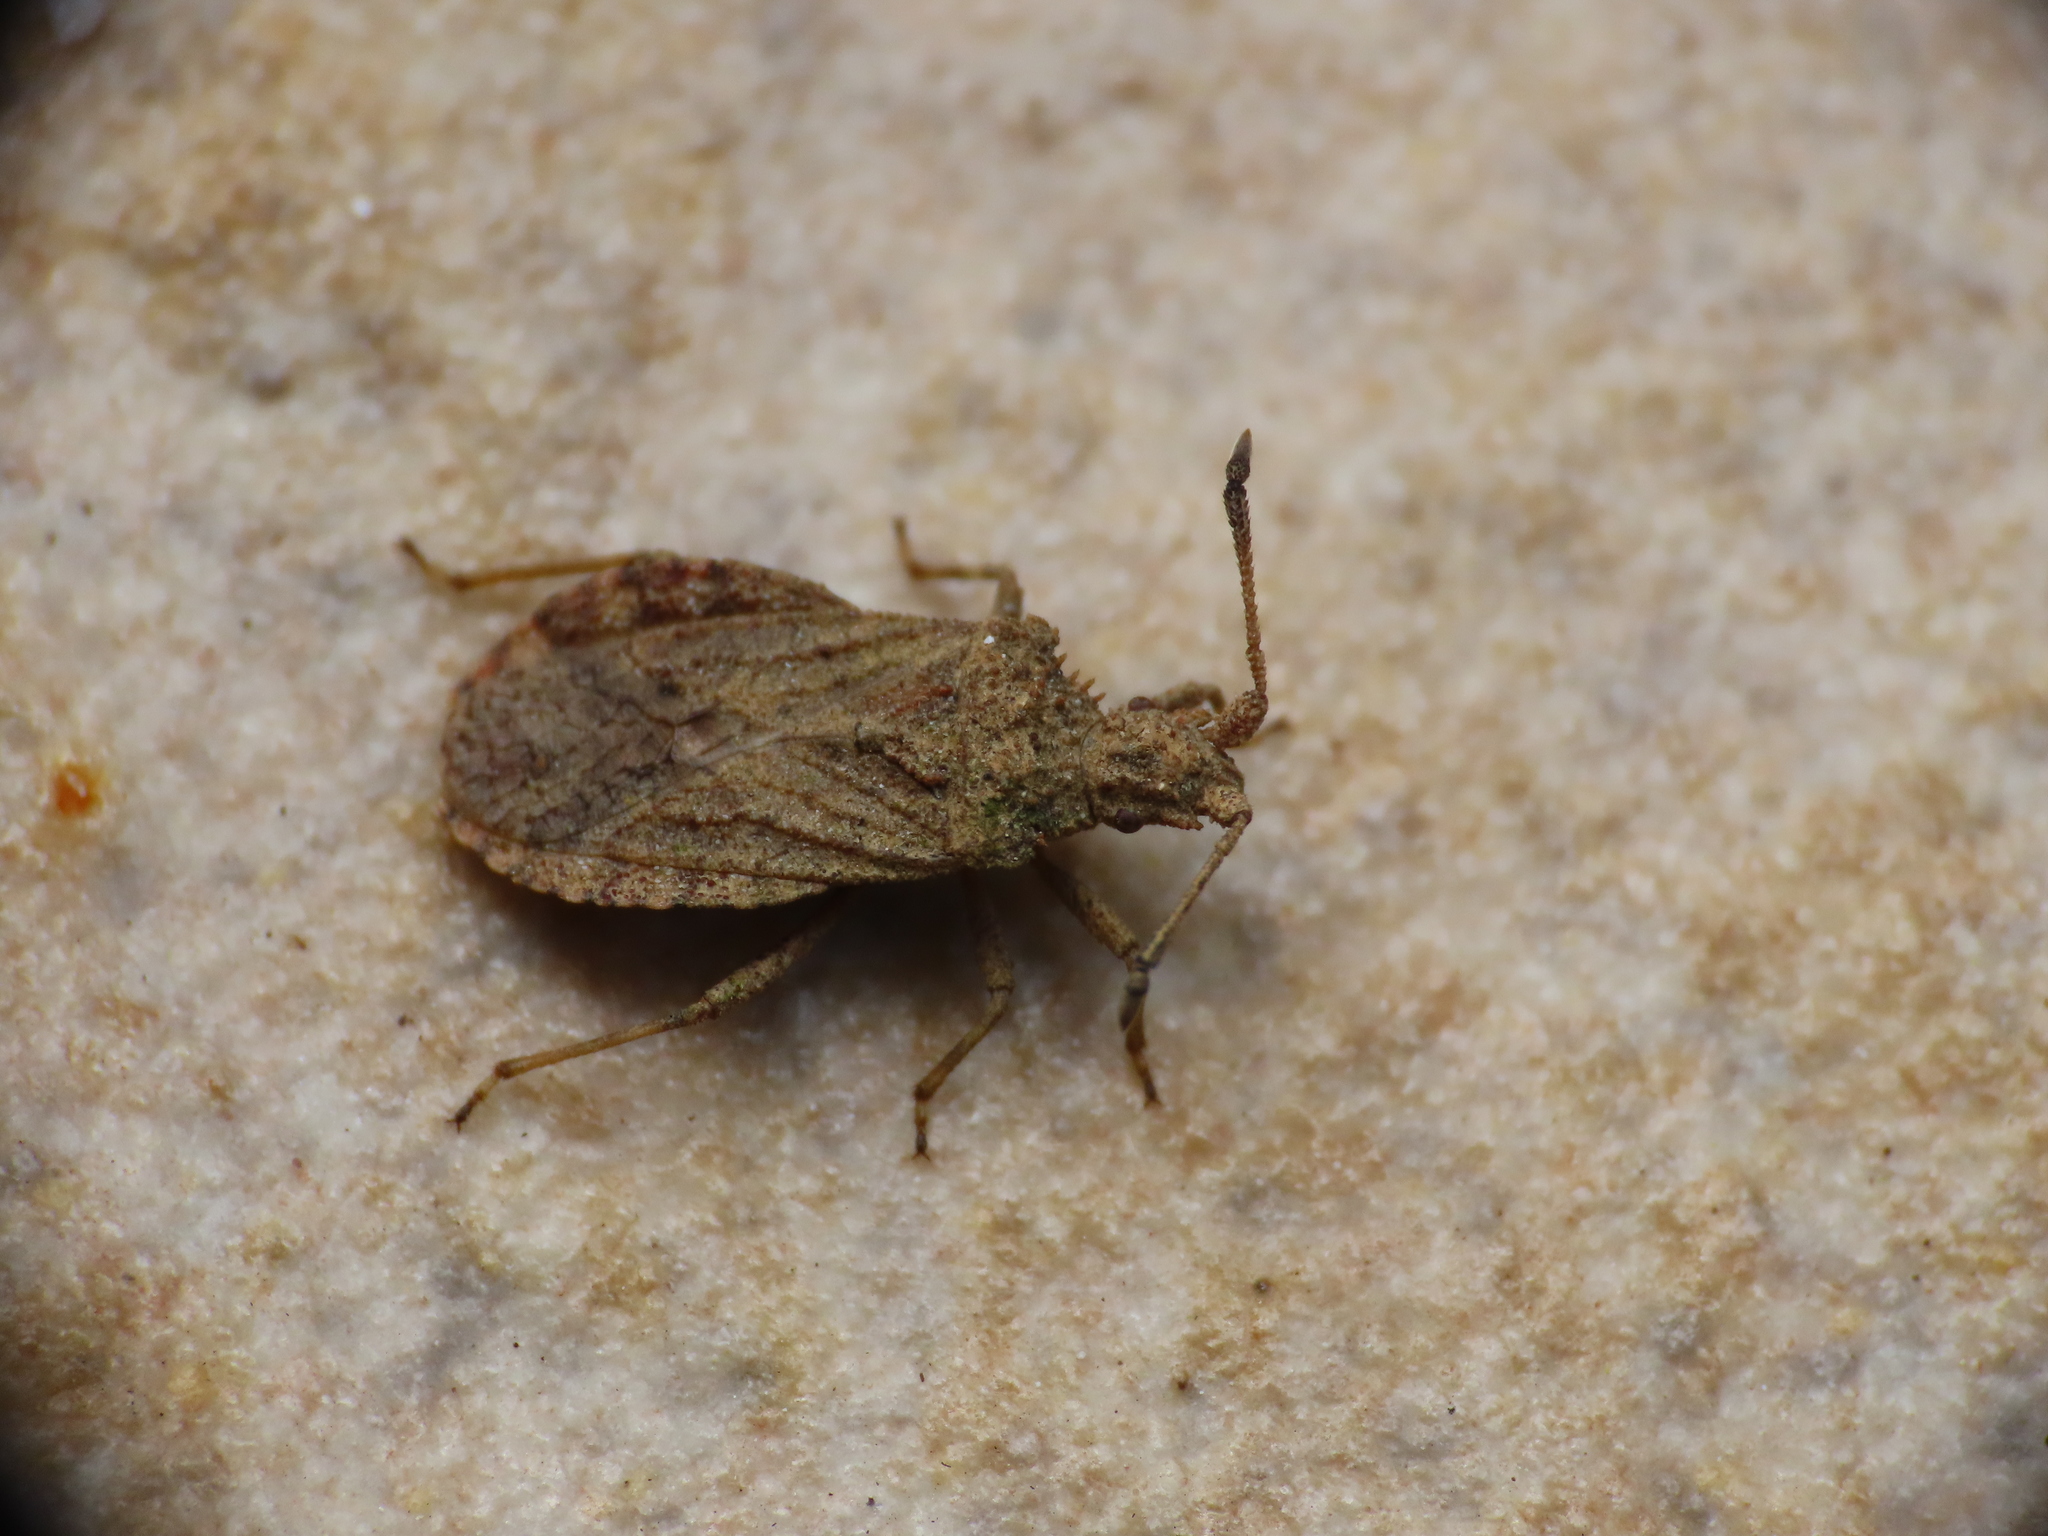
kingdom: Animalia
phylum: Arthropoda
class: Insecta
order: Hemiptera
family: Coreidae
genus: Arenocoris
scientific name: Arenocoris waltlii
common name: Breckland leatherbug
